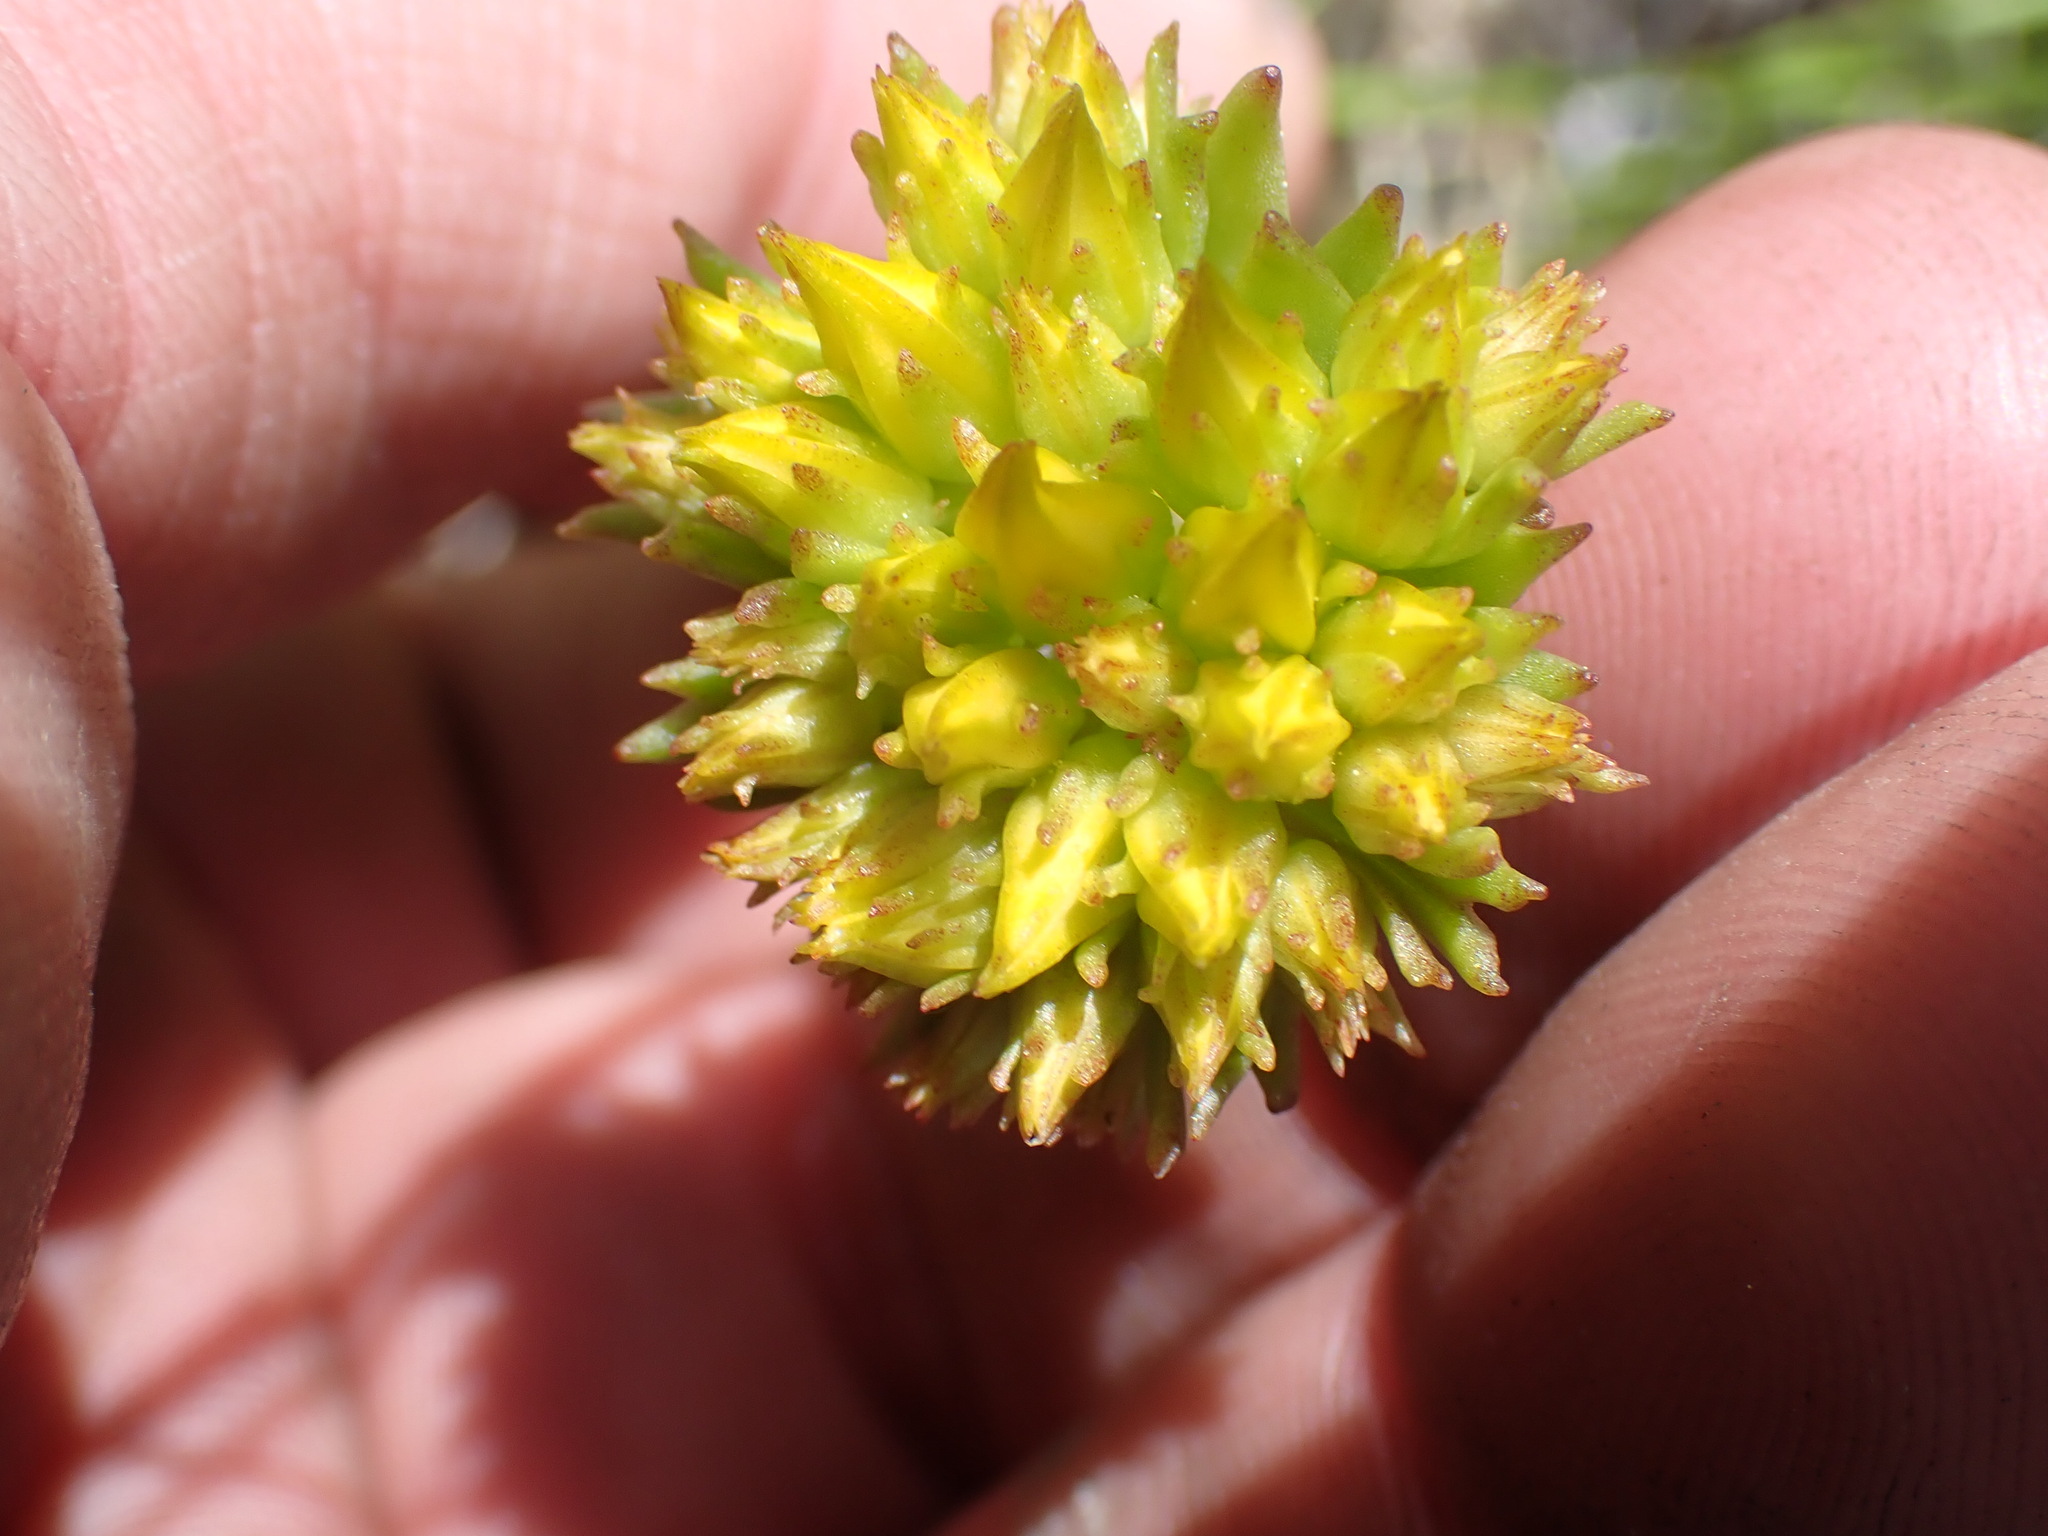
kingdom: Plantae
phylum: Tracheophyta
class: Magnoliopsida
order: Saxifragales
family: Crassulaceae
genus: Sedum
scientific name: Sedum lanceolatum
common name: Common stonecrop
